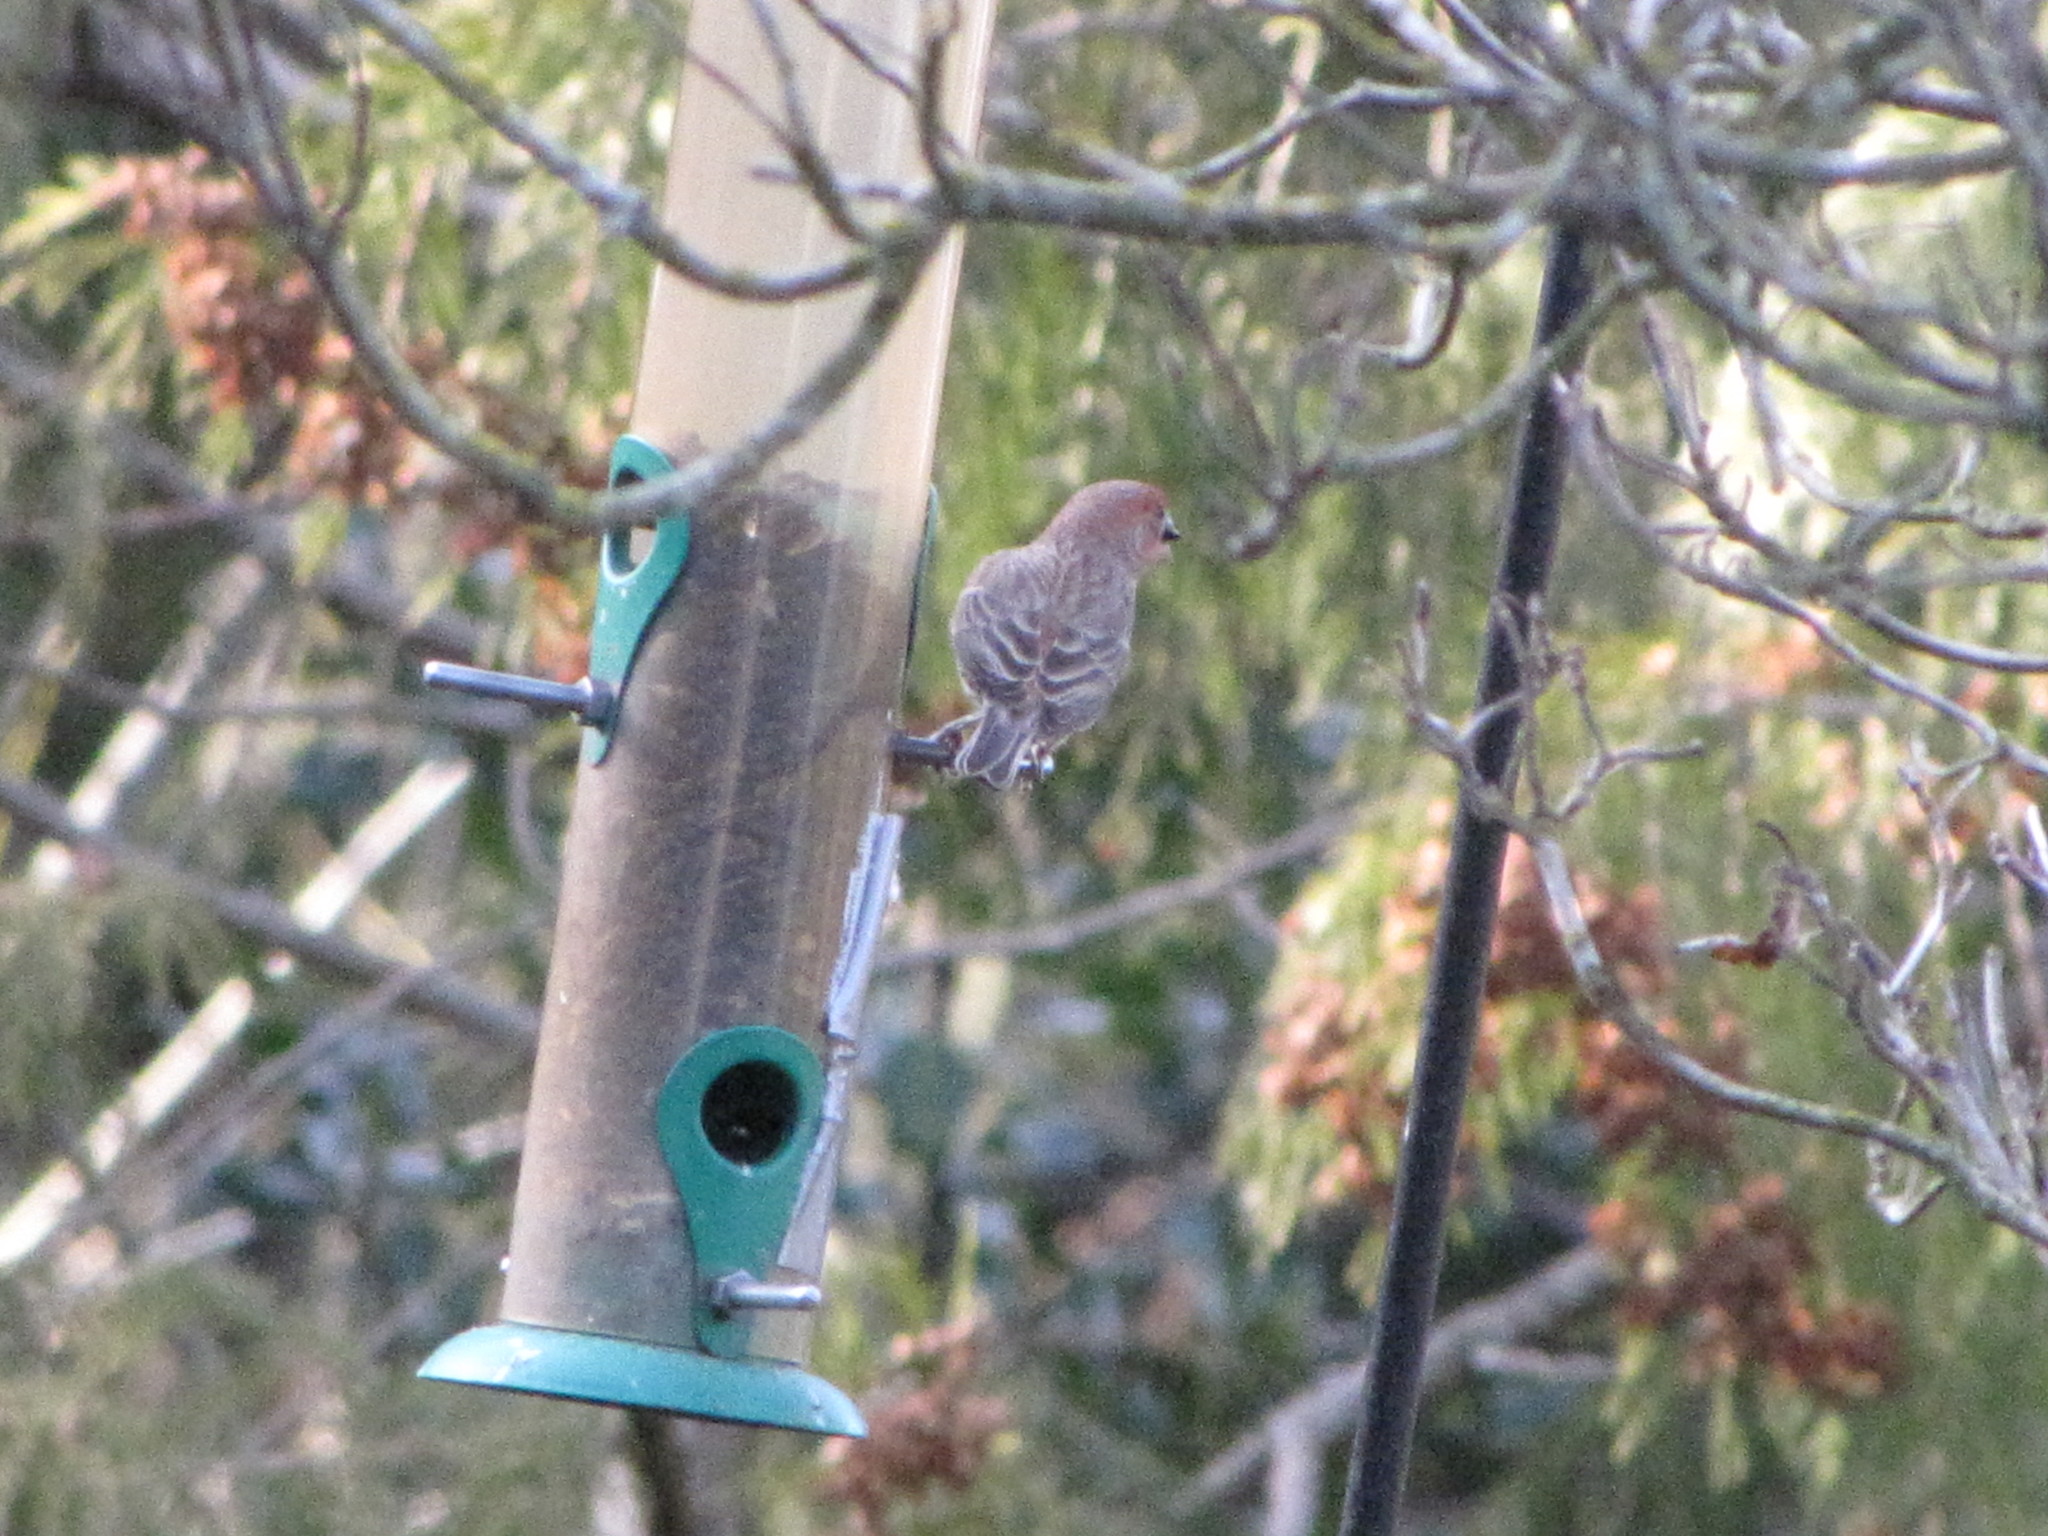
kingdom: Animalia
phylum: Chordata
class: Aves
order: Passeriformes
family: Fringillidae
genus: Haemorhous
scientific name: Haemorhous mexicanus
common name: House finch
